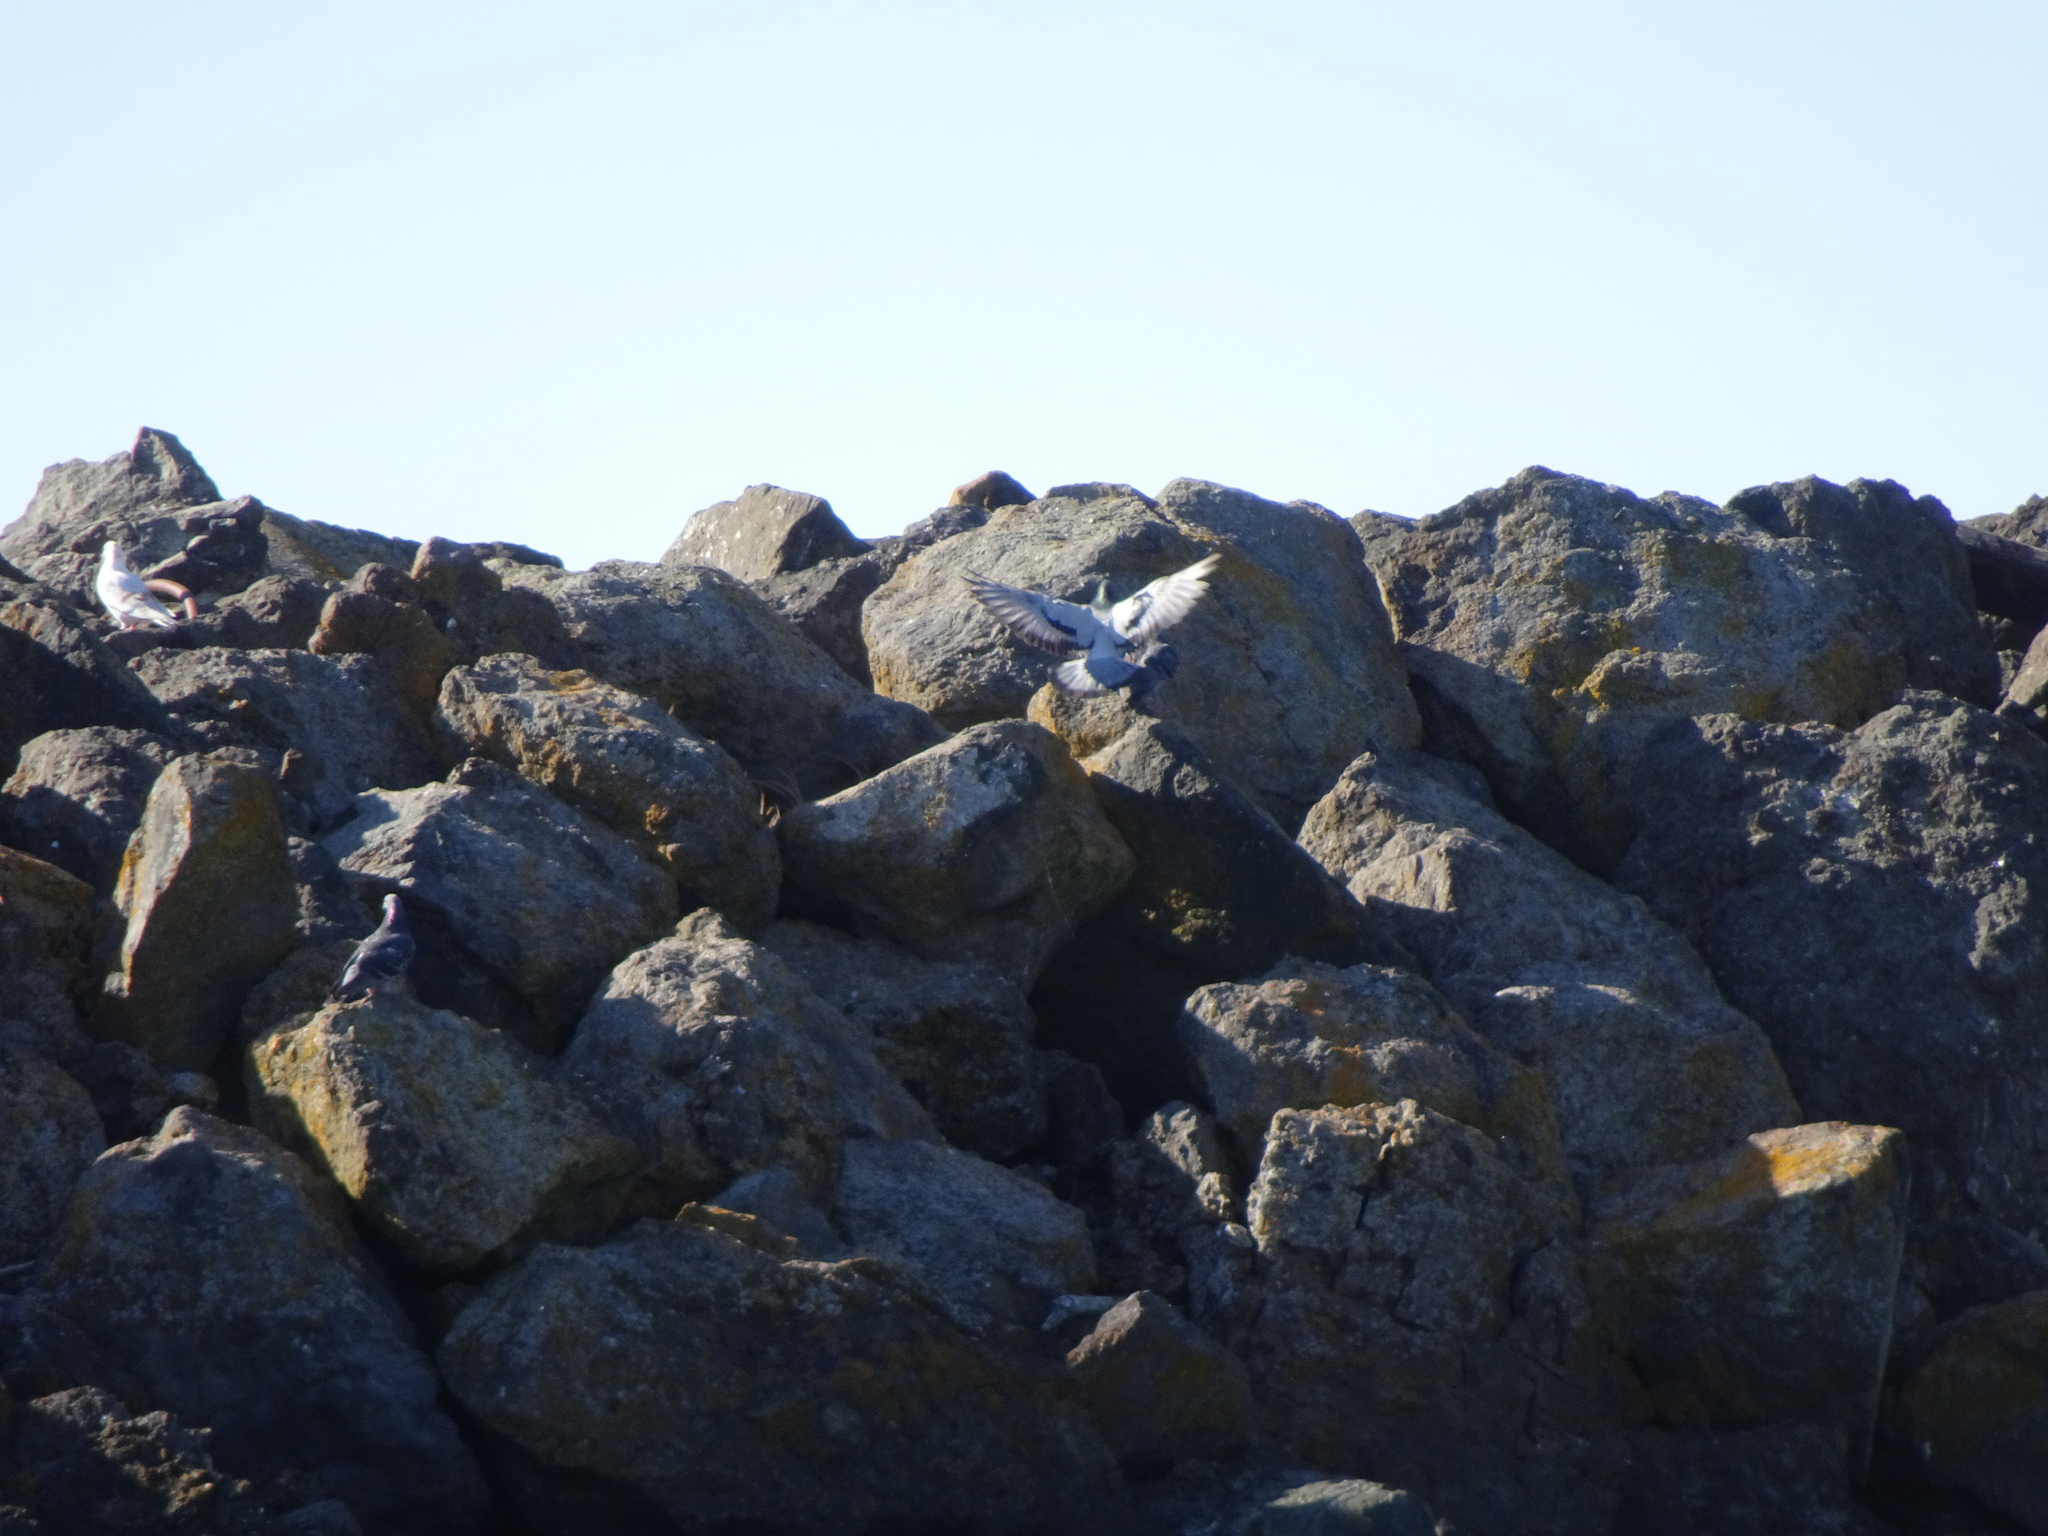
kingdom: Animalia
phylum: Chordata
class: Aves
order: Columbiformes
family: Columbidae
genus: Columba
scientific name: Columba livia
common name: Rock pigeon
